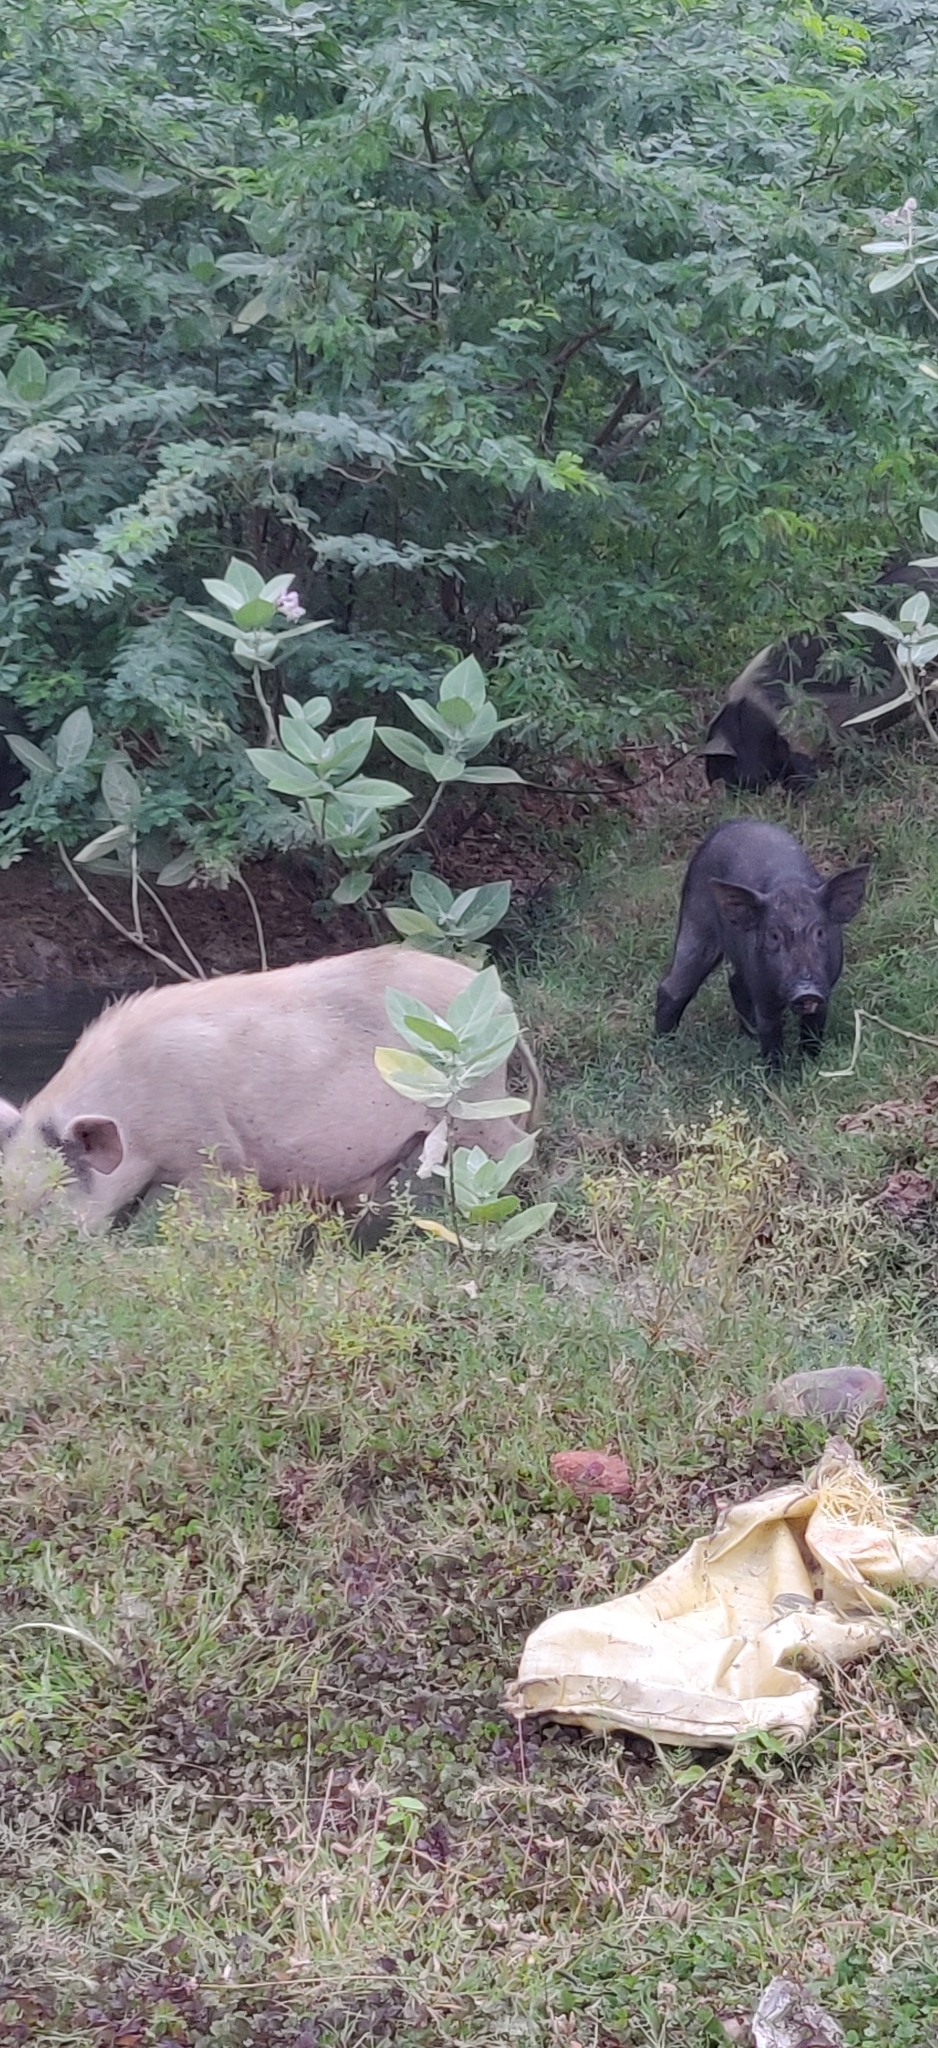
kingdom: Animalia
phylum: Chordata
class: Mammalia
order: Artiodactyla
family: Suidae
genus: Sus
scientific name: Sus scrofa
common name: Wild boar
